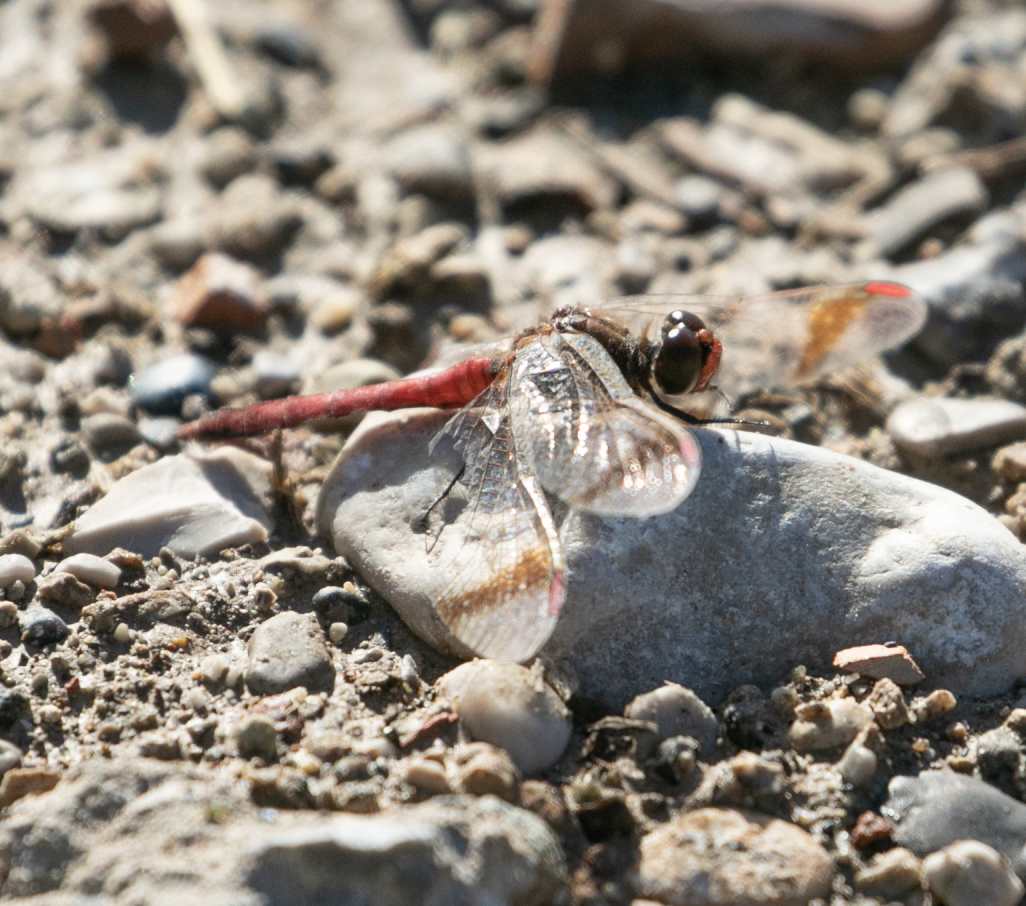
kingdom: Animalia
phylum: Arthropoda
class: Insecta
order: Odonata
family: Libellulidae
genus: Sympetrum
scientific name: Sympetrum pedemontanum
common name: Banded darter
